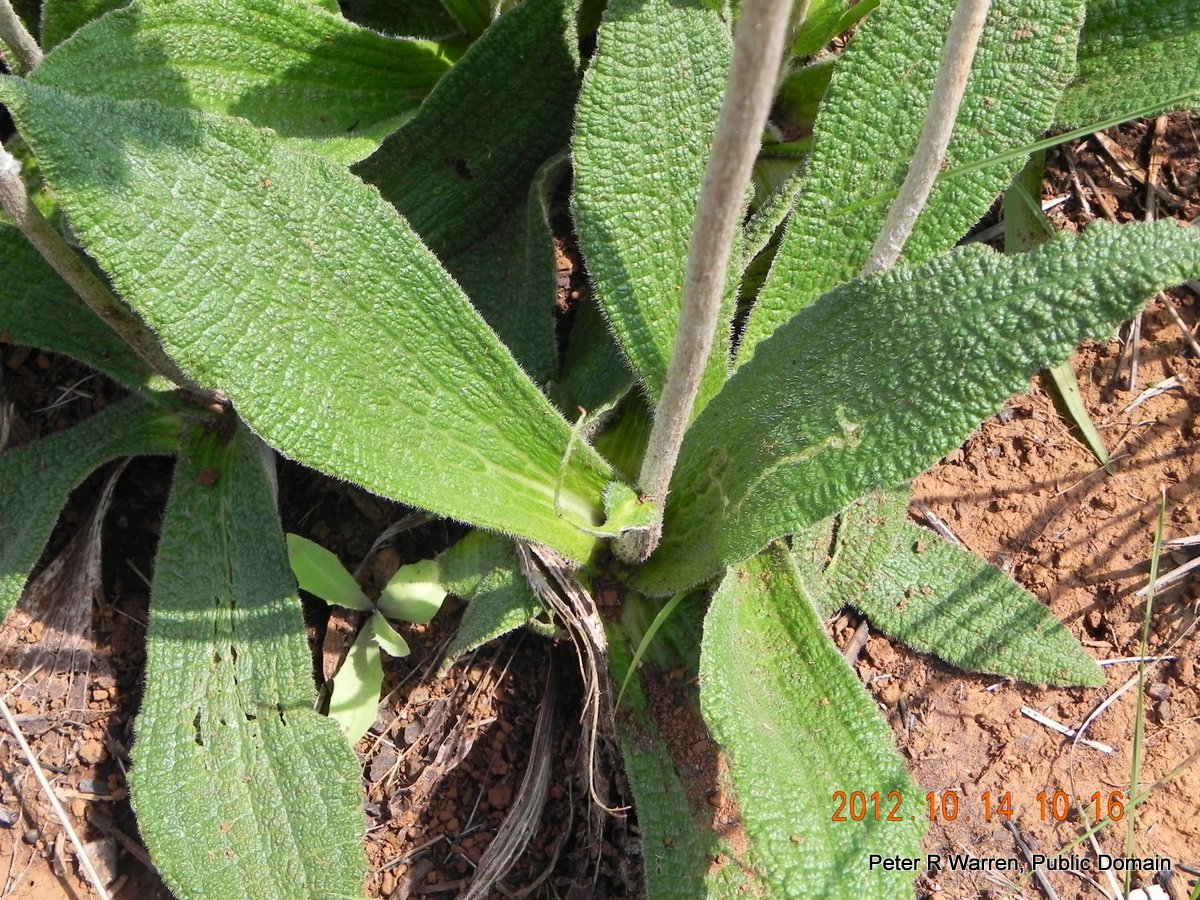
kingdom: Plantae
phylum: Tracheophyta
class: Magnoliopsida
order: Asterales
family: Asteraceae
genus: Helichrysum
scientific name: Helichrysum nudifolium
